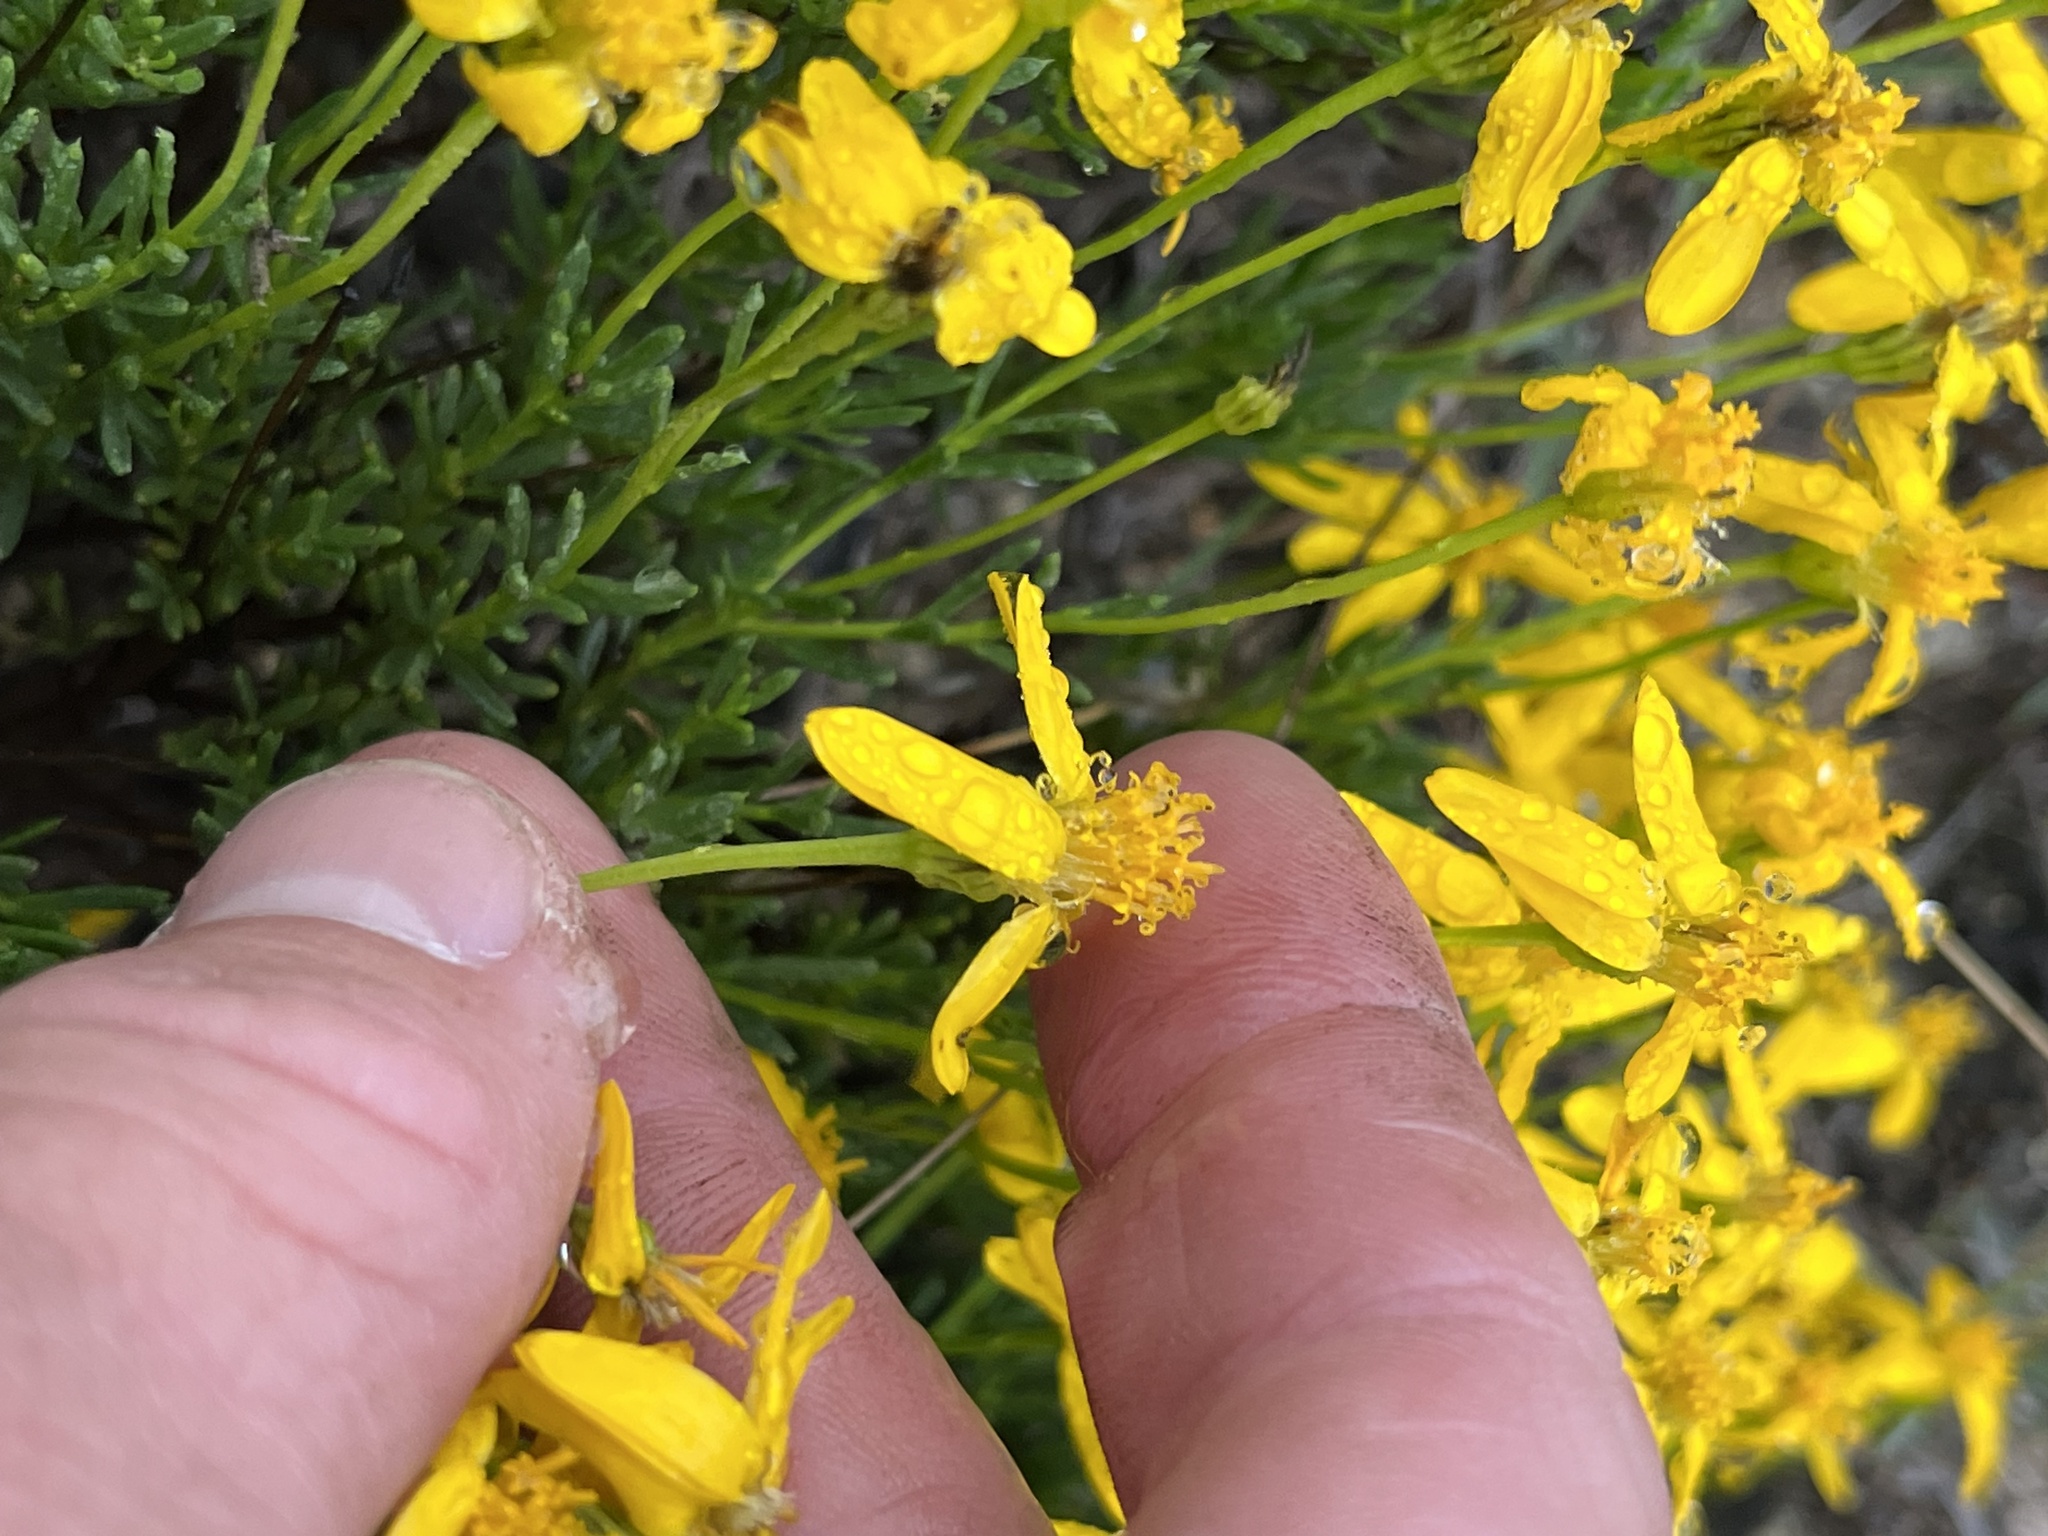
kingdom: Plantae
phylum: Tracheophyta
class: Magnoliopsida
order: Asterales
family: Asteraceae
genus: Chrysactinia
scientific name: Chrysactinia mexicana
